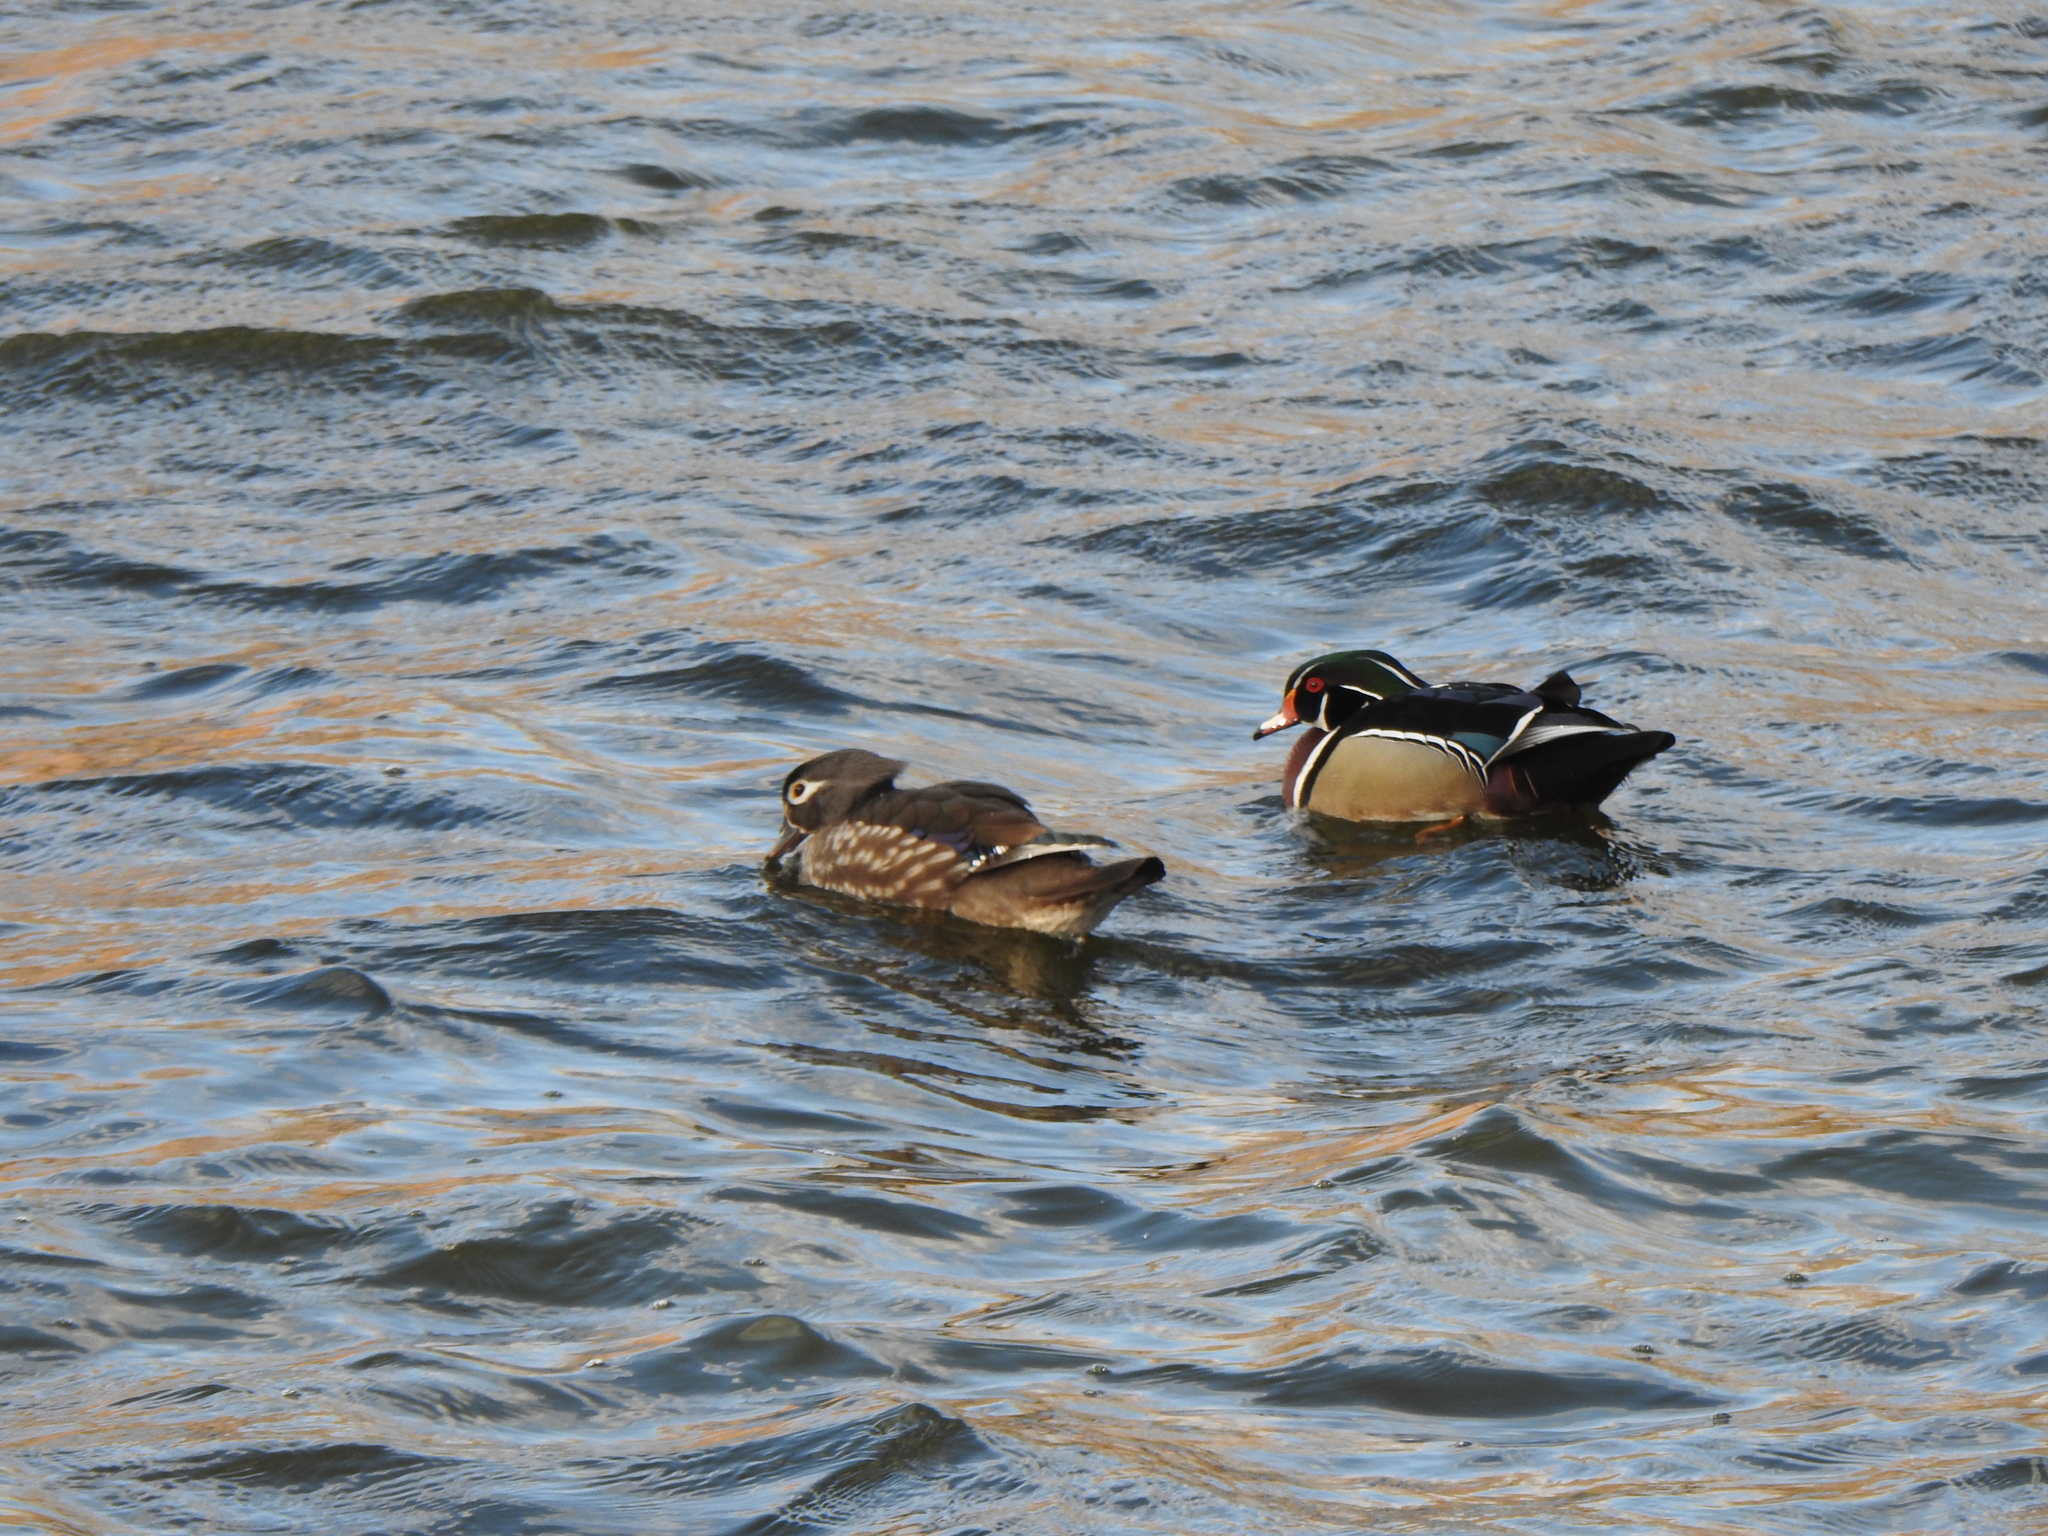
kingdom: Animalia
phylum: Chordata
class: Aves
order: Anseriformes
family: Anatidae
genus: Aix
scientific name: Aix sponsa
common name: Wood duck
